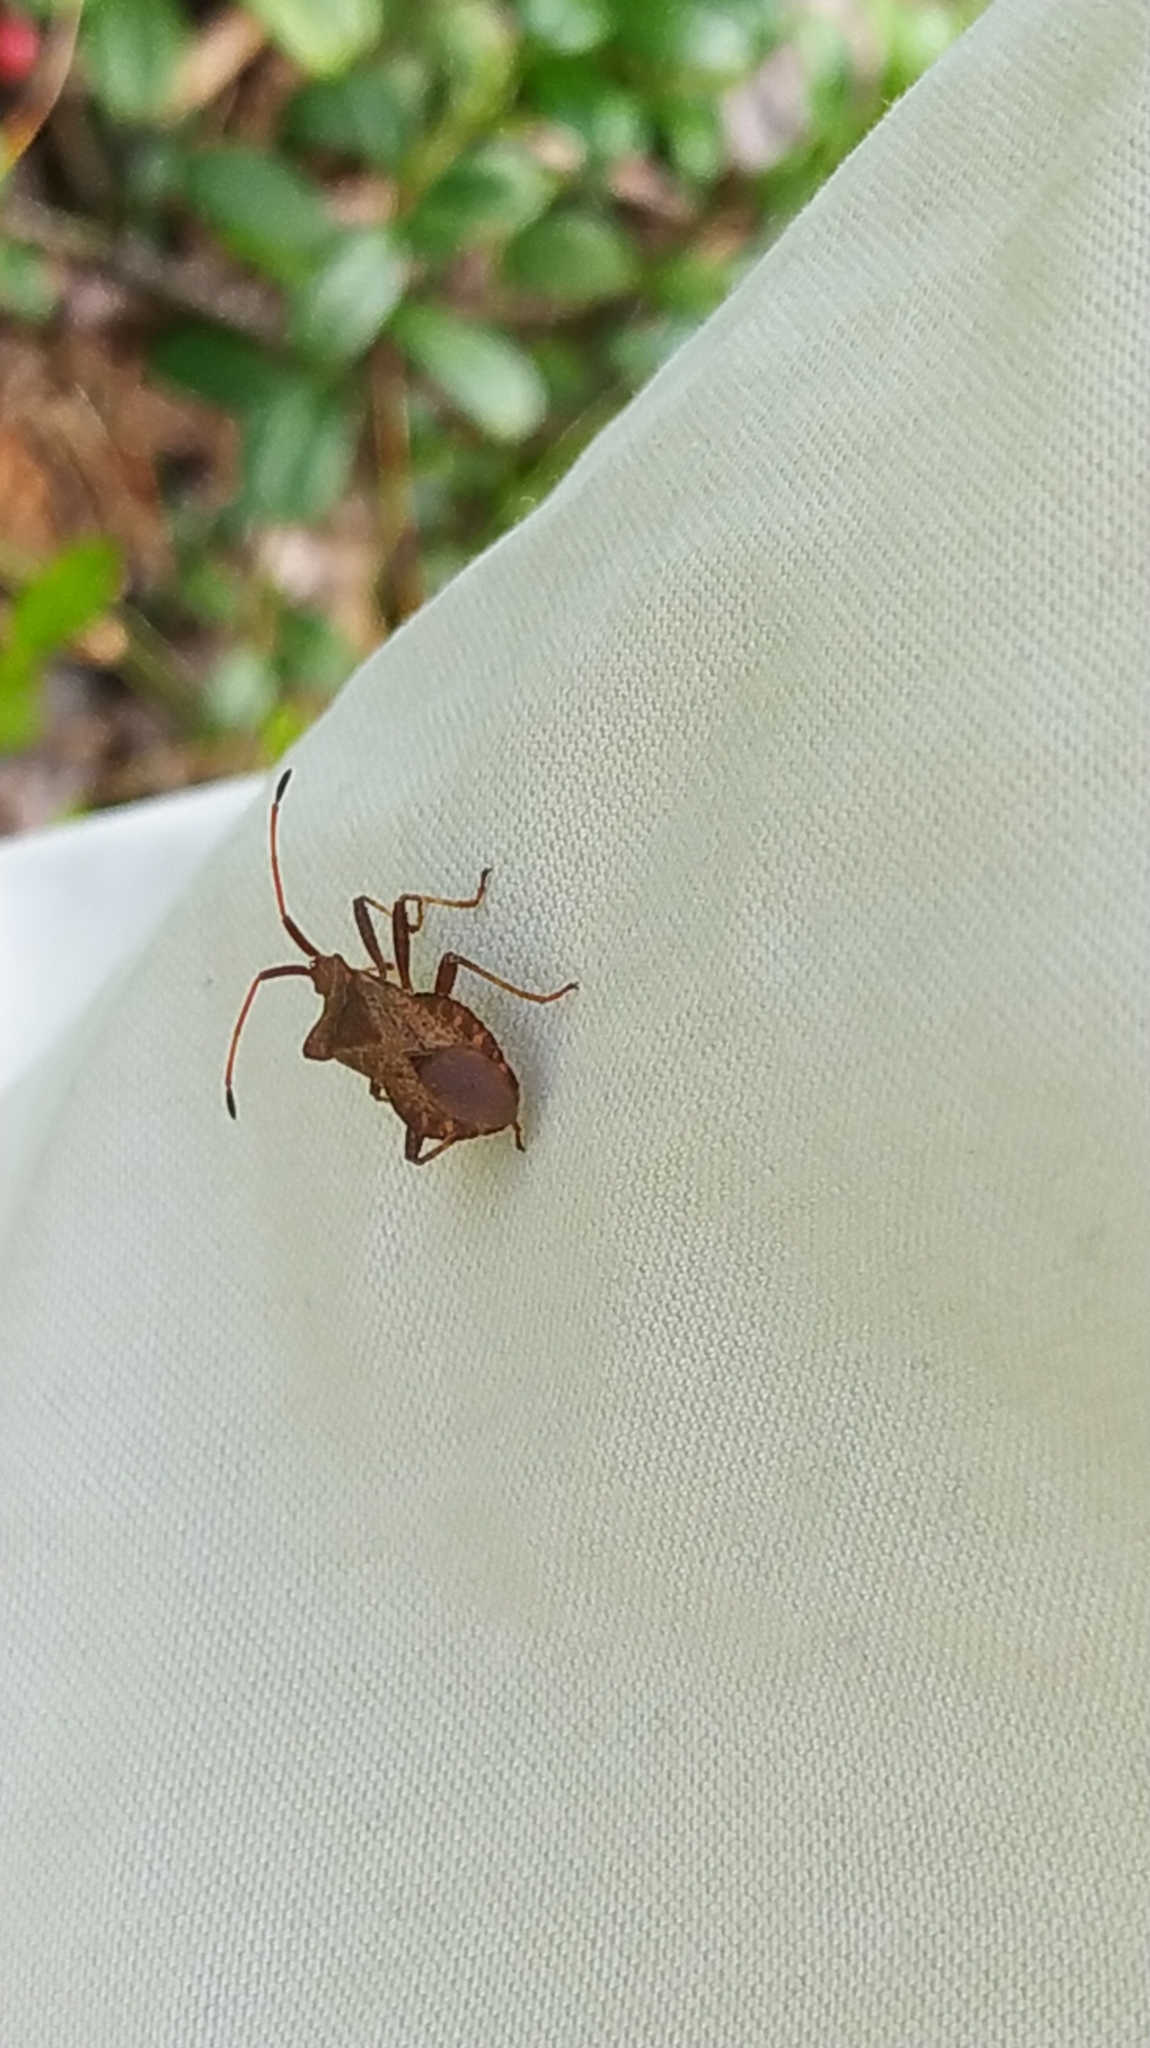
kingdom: Animalia
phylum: Arthropoda
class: Insecta
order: Hemiptera
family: Coreidae
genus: Coreus
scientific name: Coreus marginatus
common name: Dock bug
